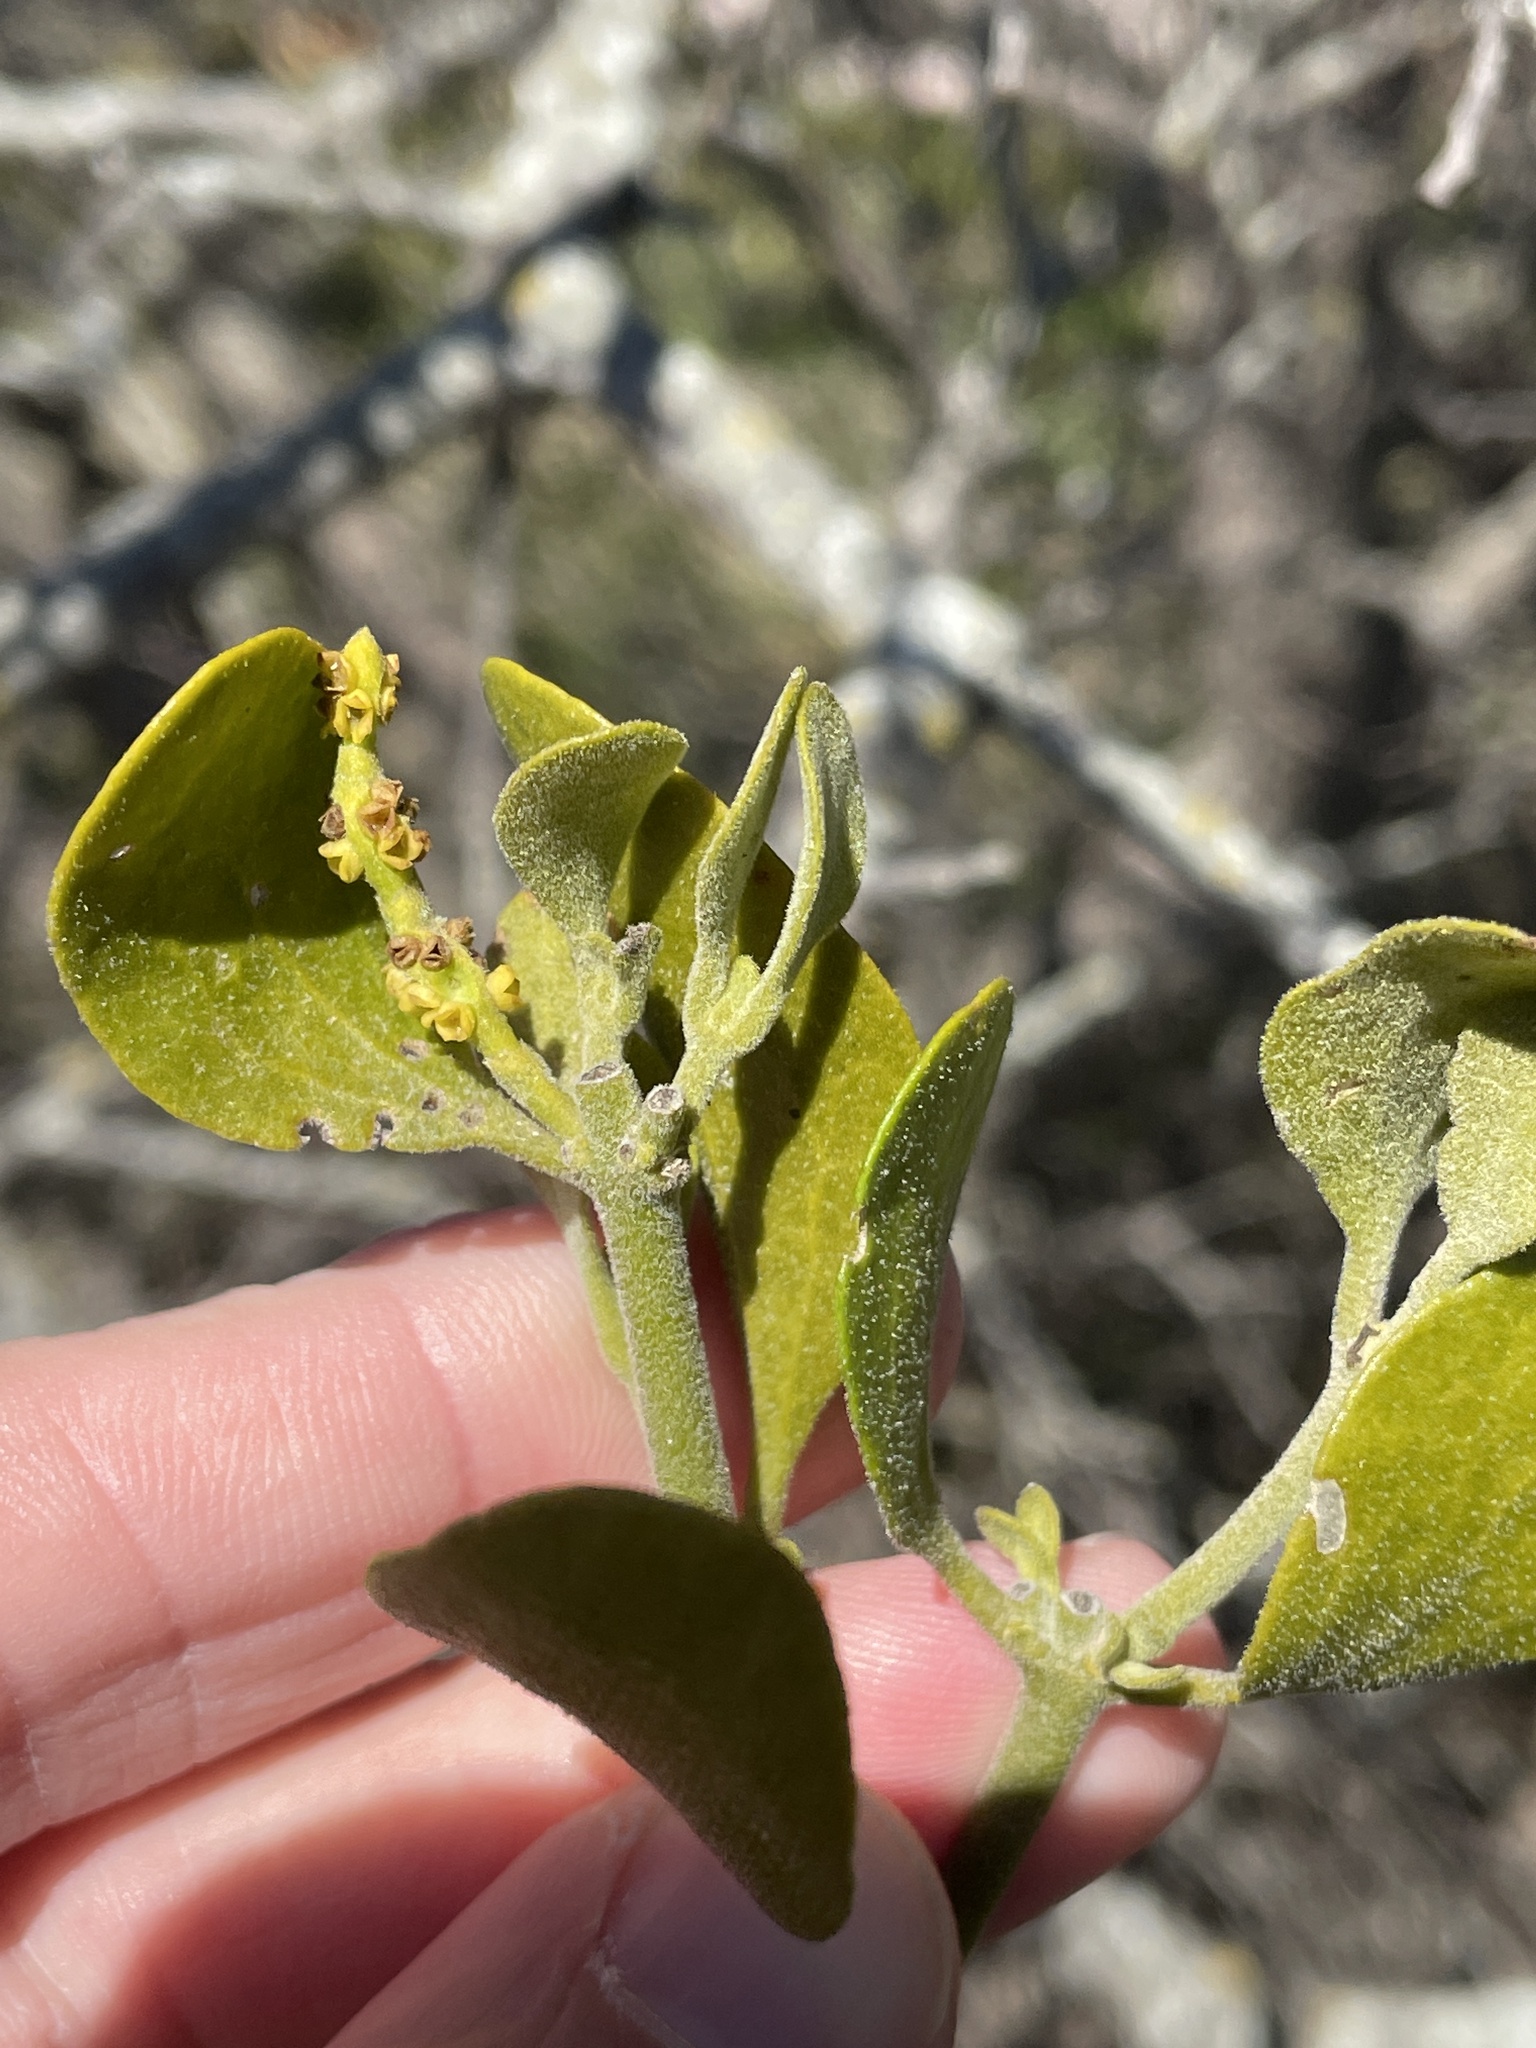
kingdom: Plantae
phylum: Tracheophyta
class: Magnoliopsida
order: Santalales
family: Viscaceae
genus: Phoradendron
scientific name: Phoradendron leucarpum
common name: Pacific mistletoe
